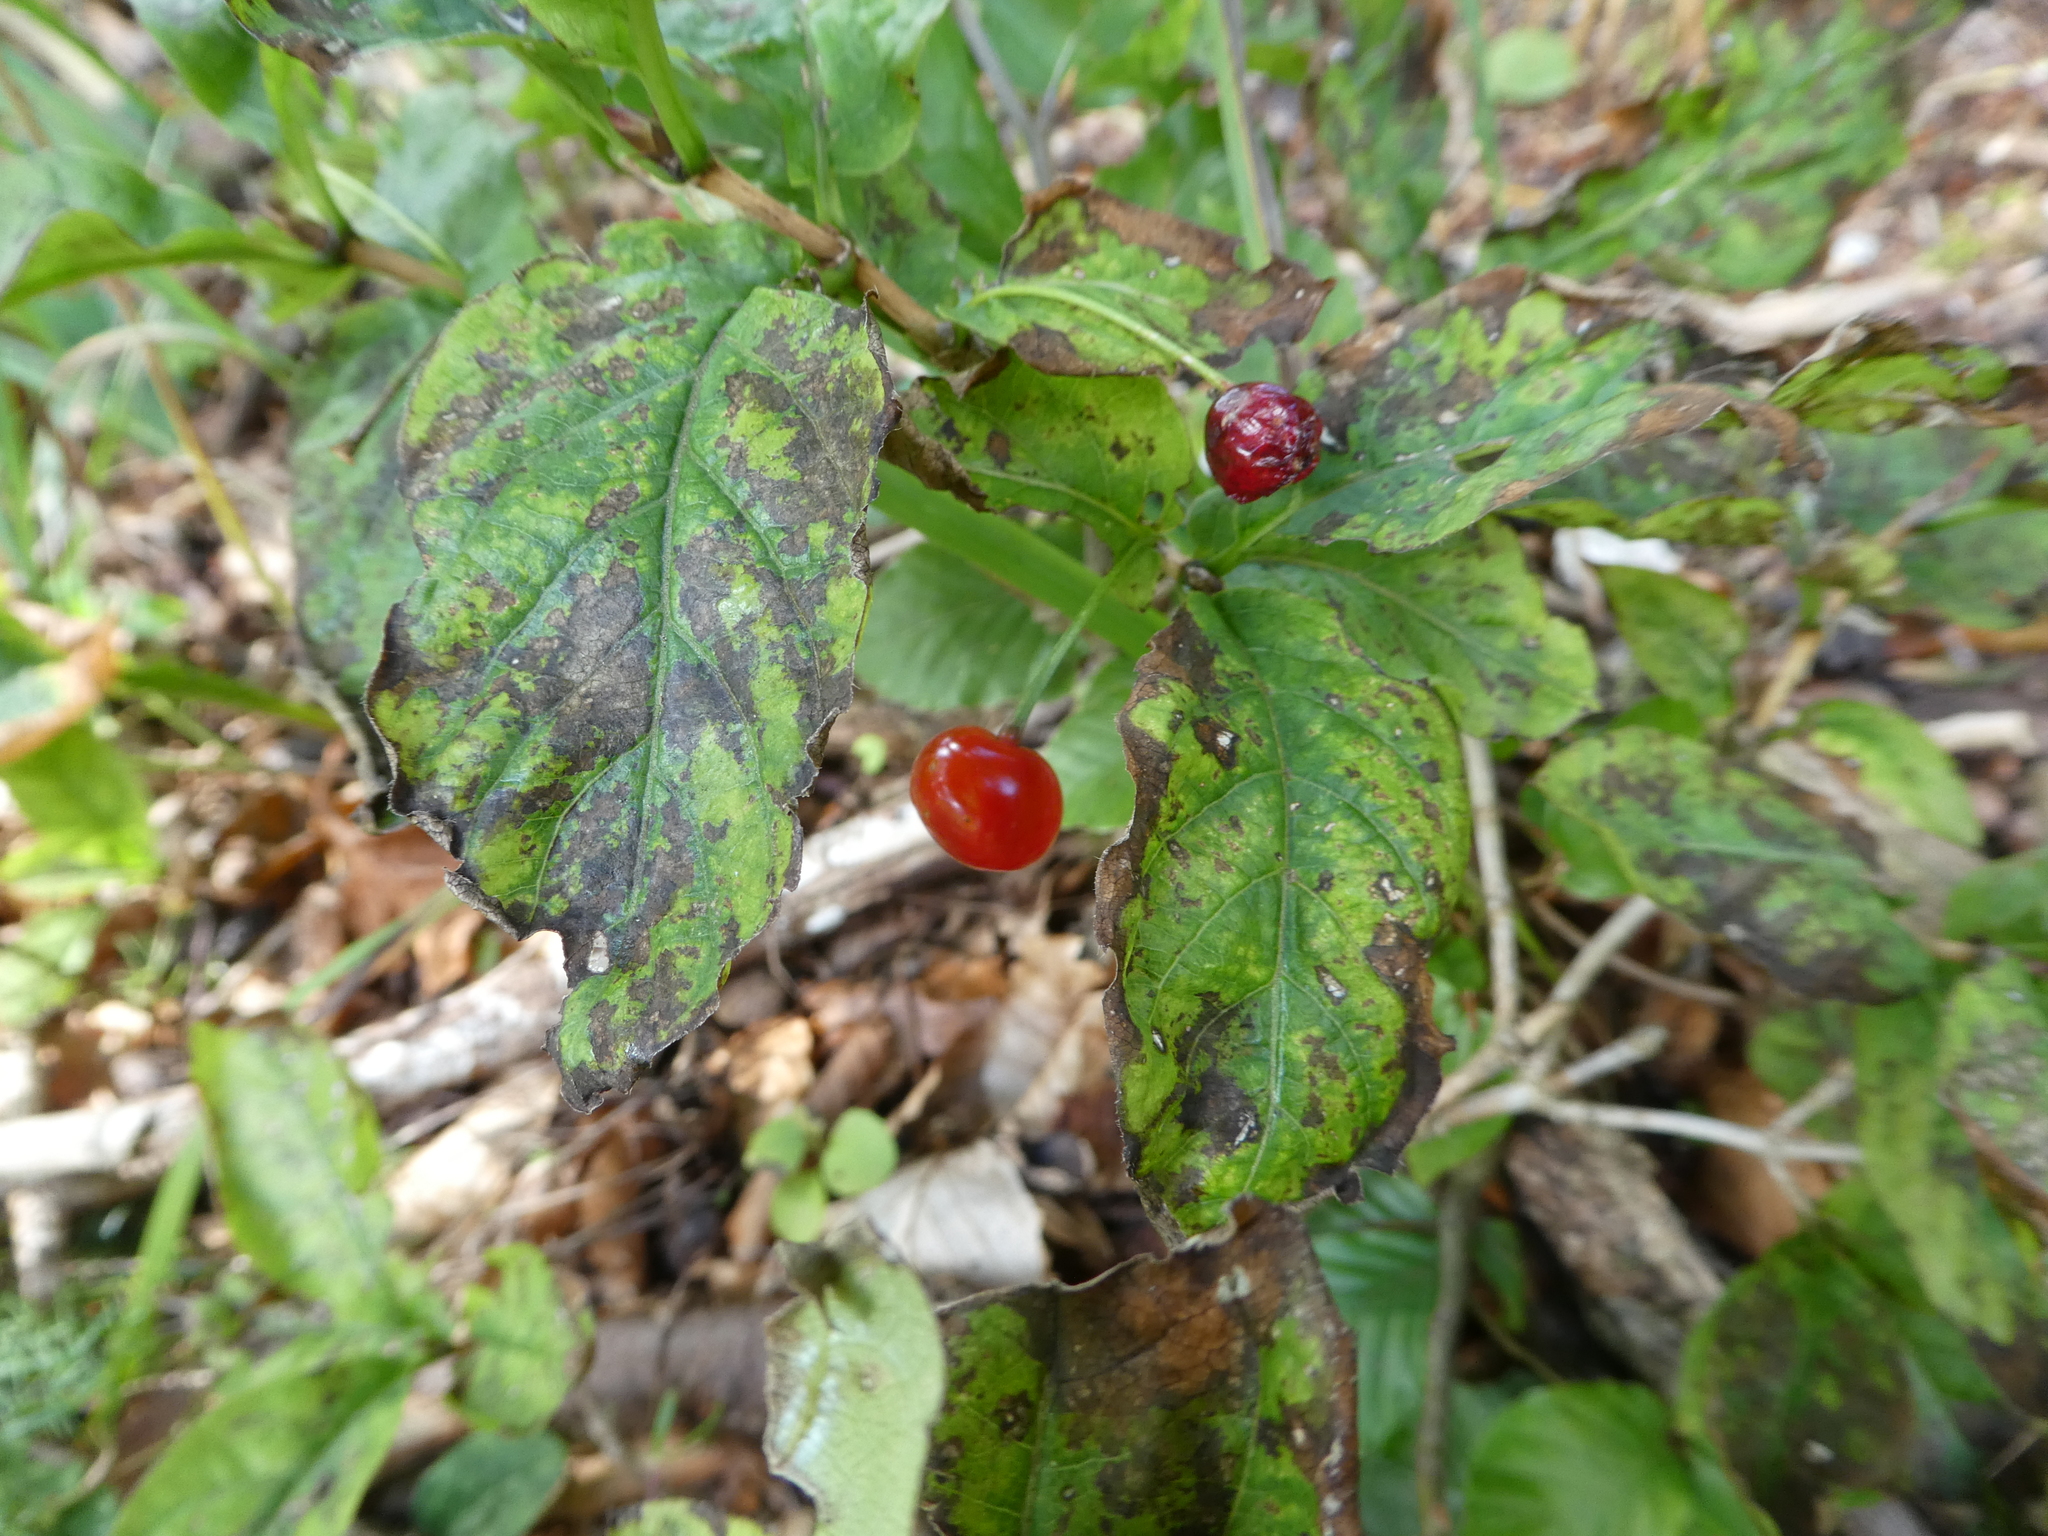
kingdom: Plantae
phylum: Tracheophyta
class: Magnoliopsida
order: Dipsacales
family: Caprifoliaceae
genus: Lonicera
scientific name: Lonicera alpigena
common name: Alpine honeysuckle
